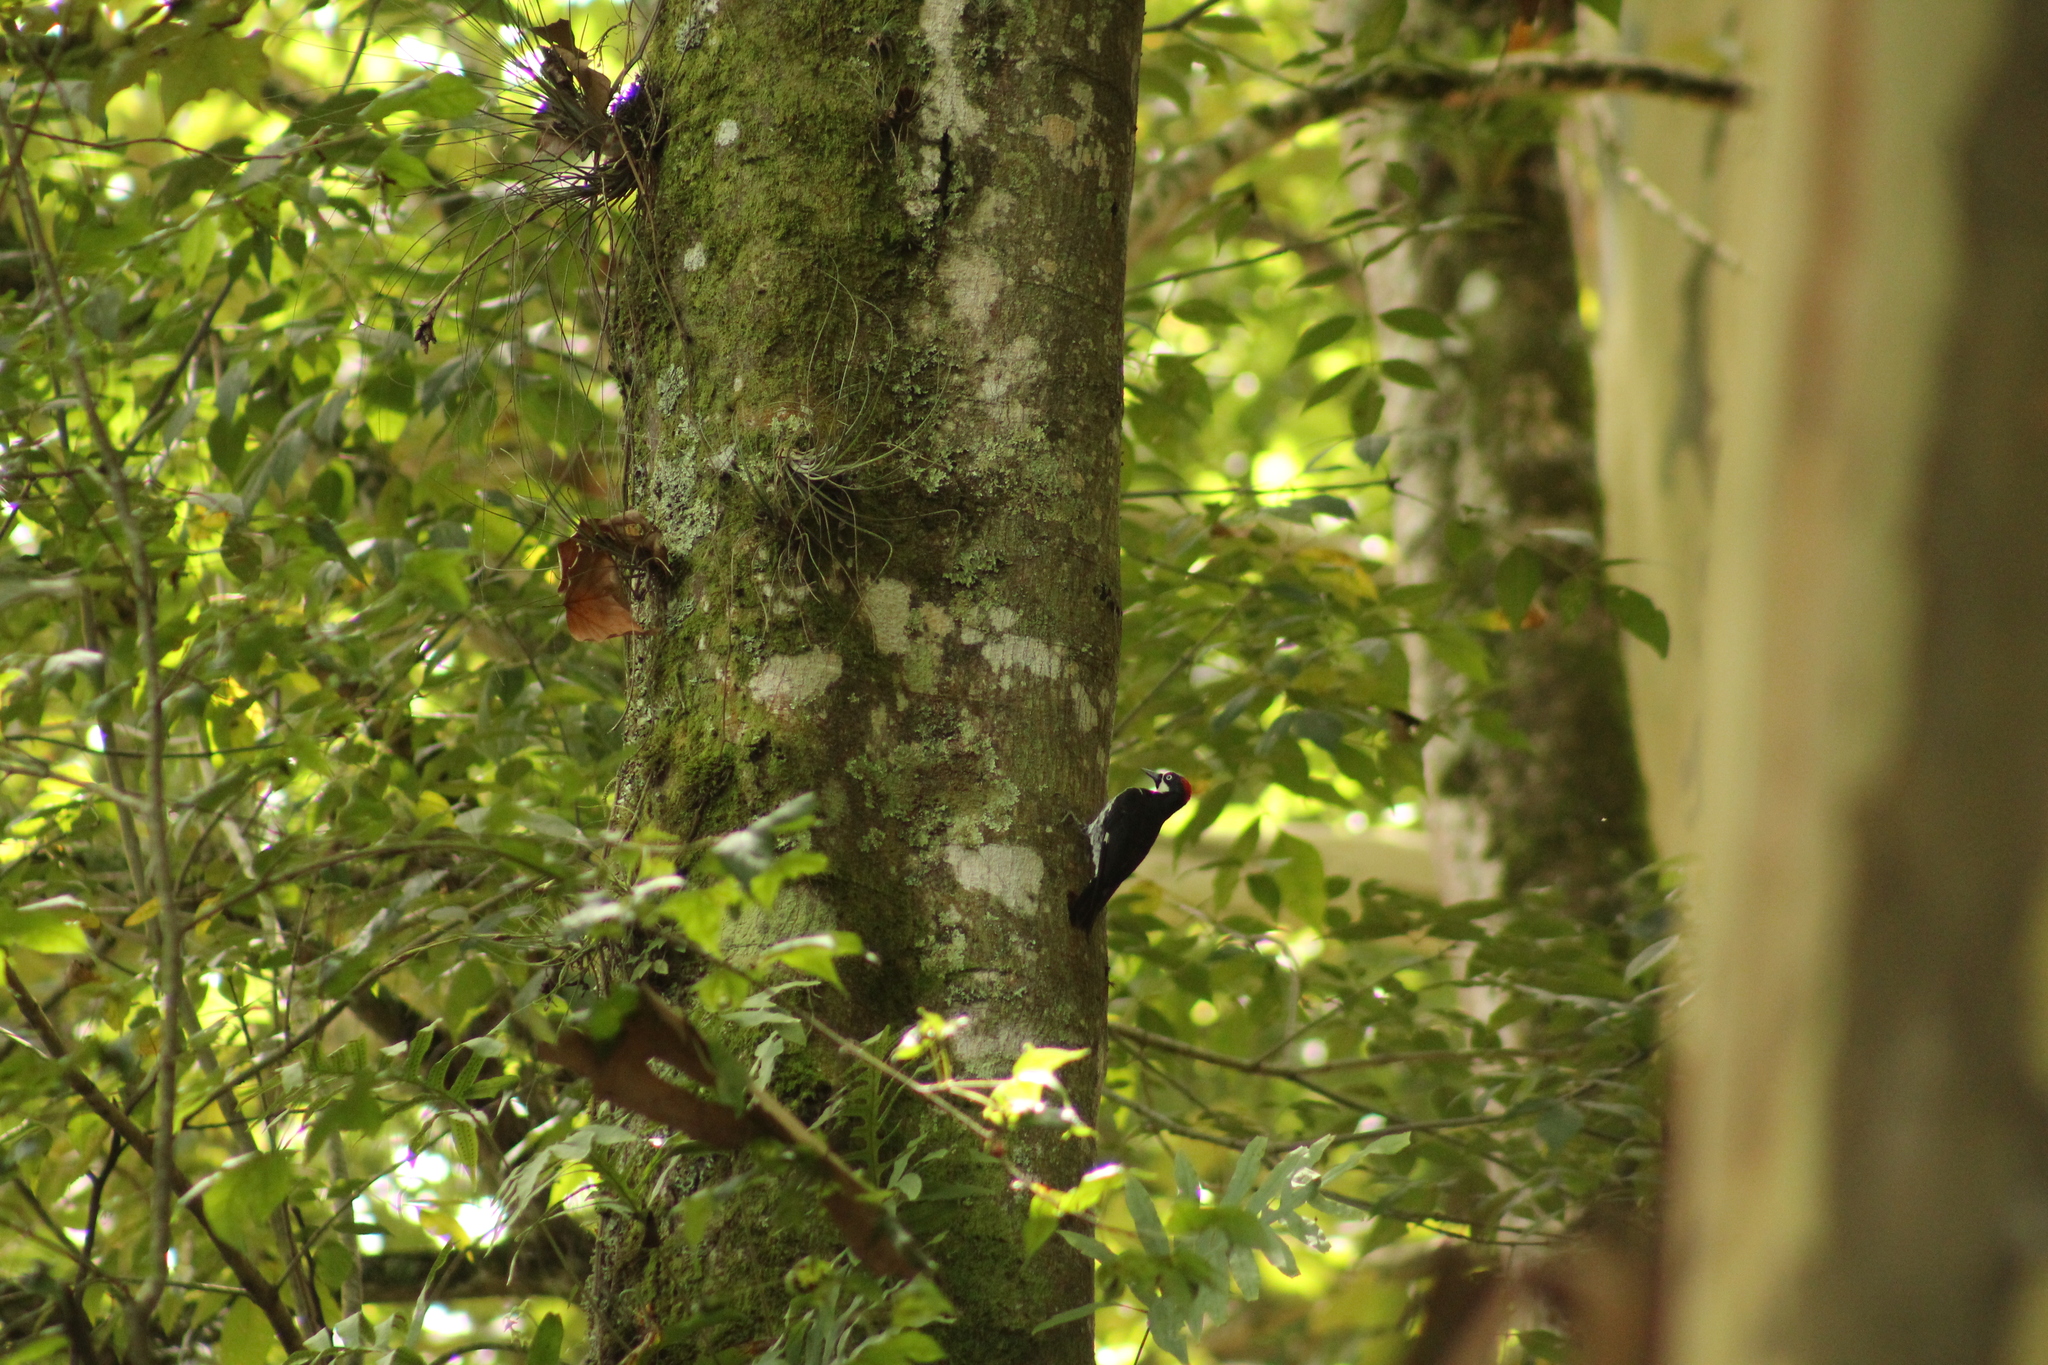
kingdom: Animalia
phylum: Chordata
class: Aves
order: Piciformes
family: Picidae
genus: Melanerpes
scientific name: Melanerpes formicivorus
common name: Acorn woodpecker
